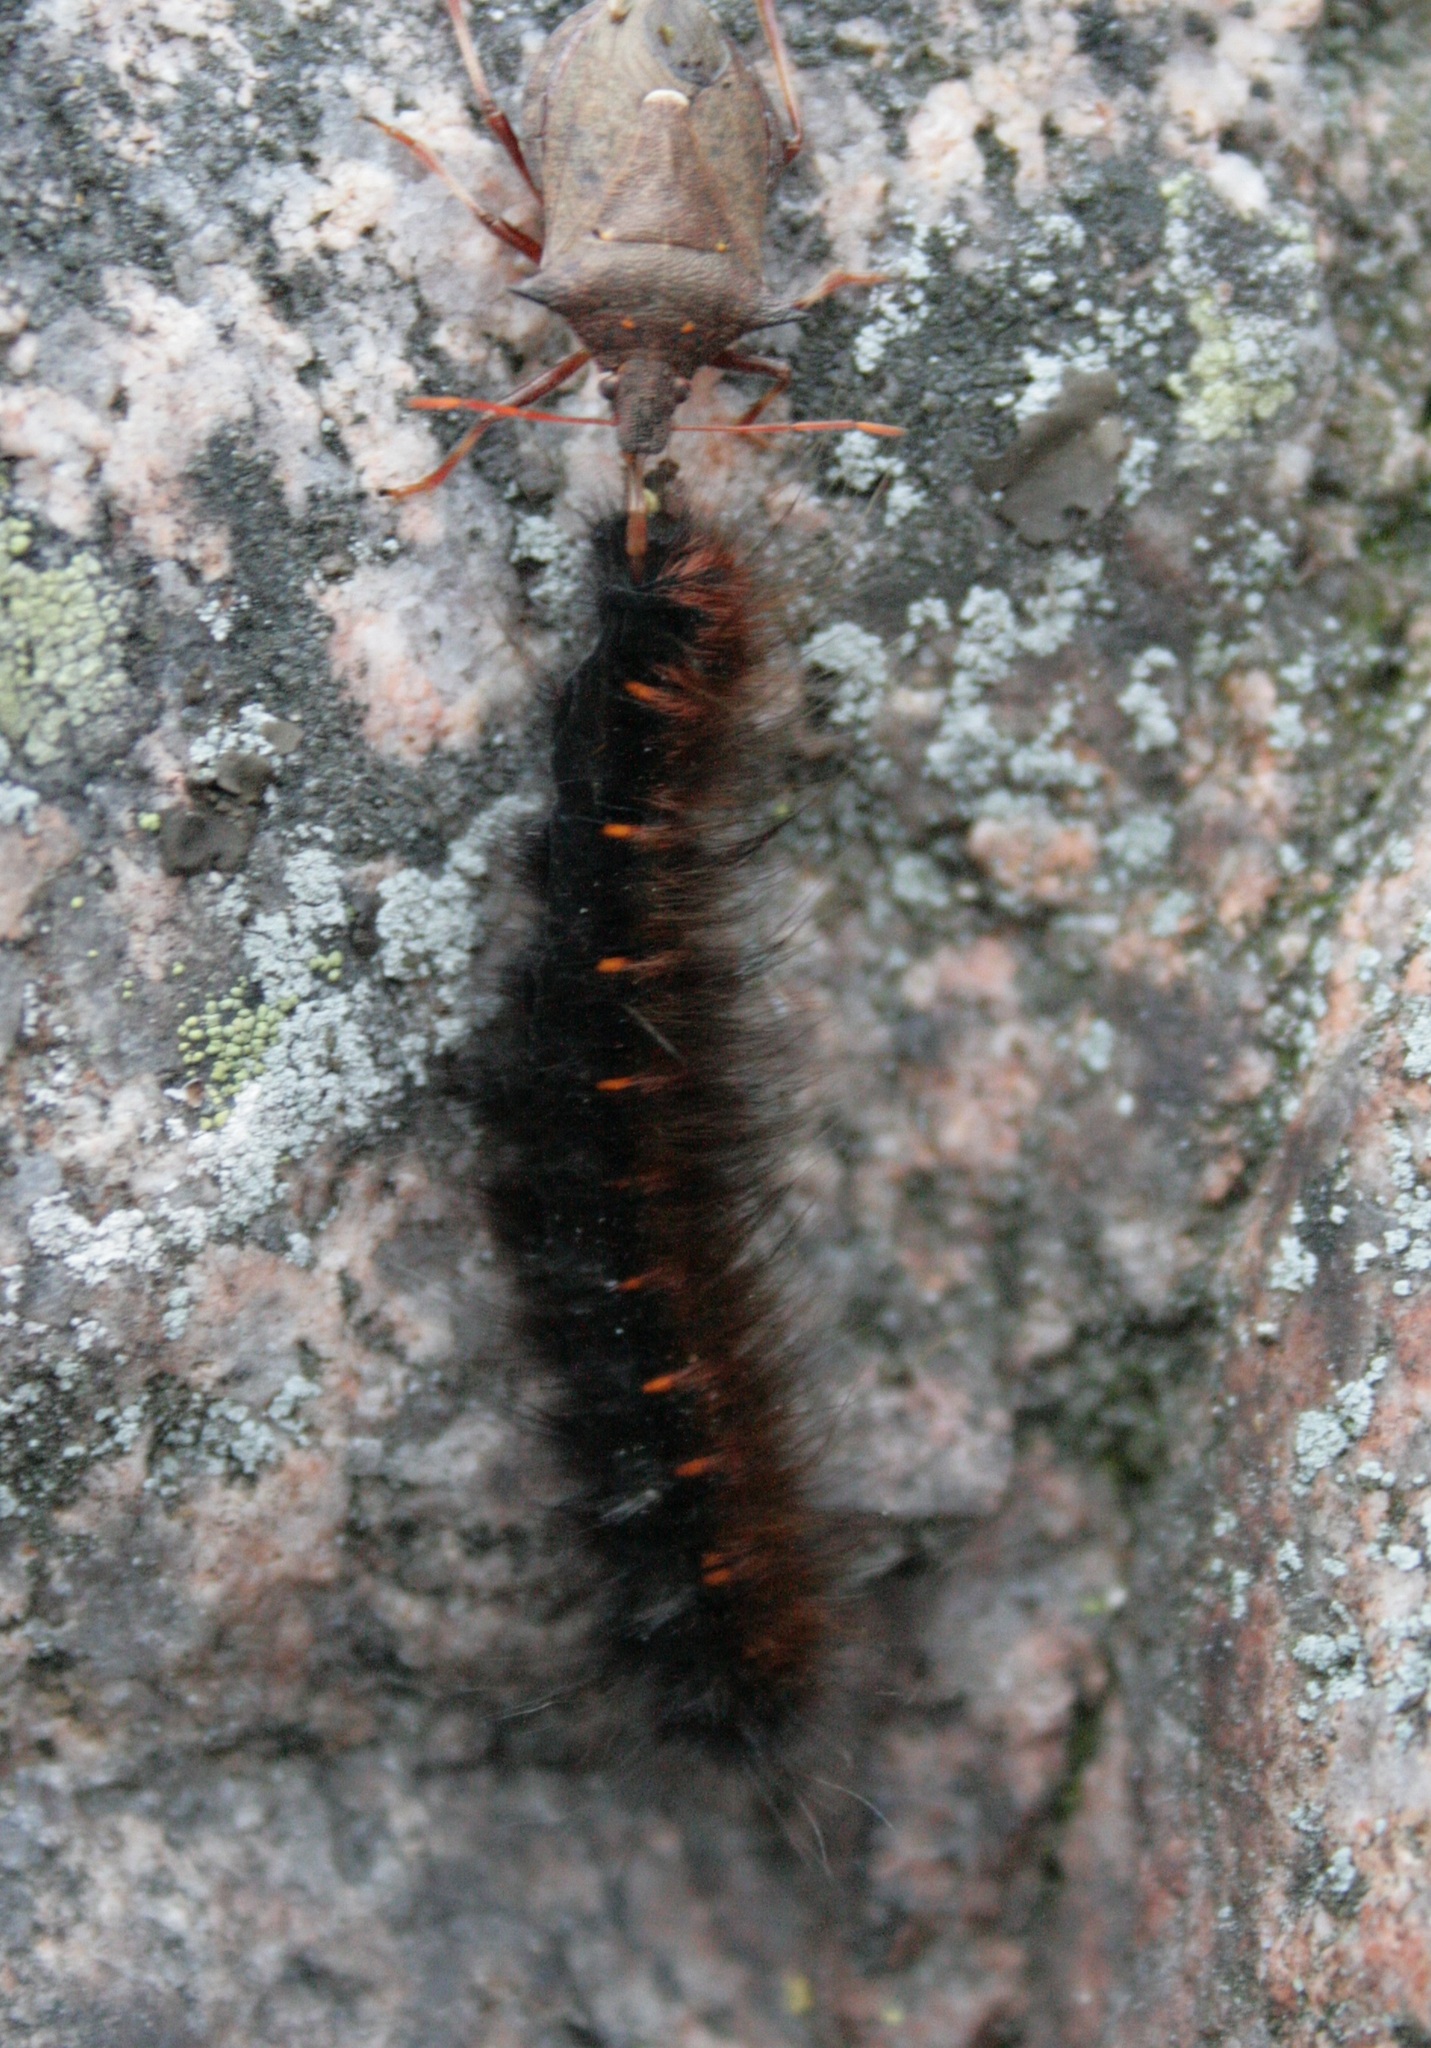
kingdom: Animalia
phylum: Arthropoda
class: Insecta
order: Lepidoptera
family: Lasiocampidae
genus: Macrothylacia
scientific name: Macrothylacia rubi
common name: Fox moth
